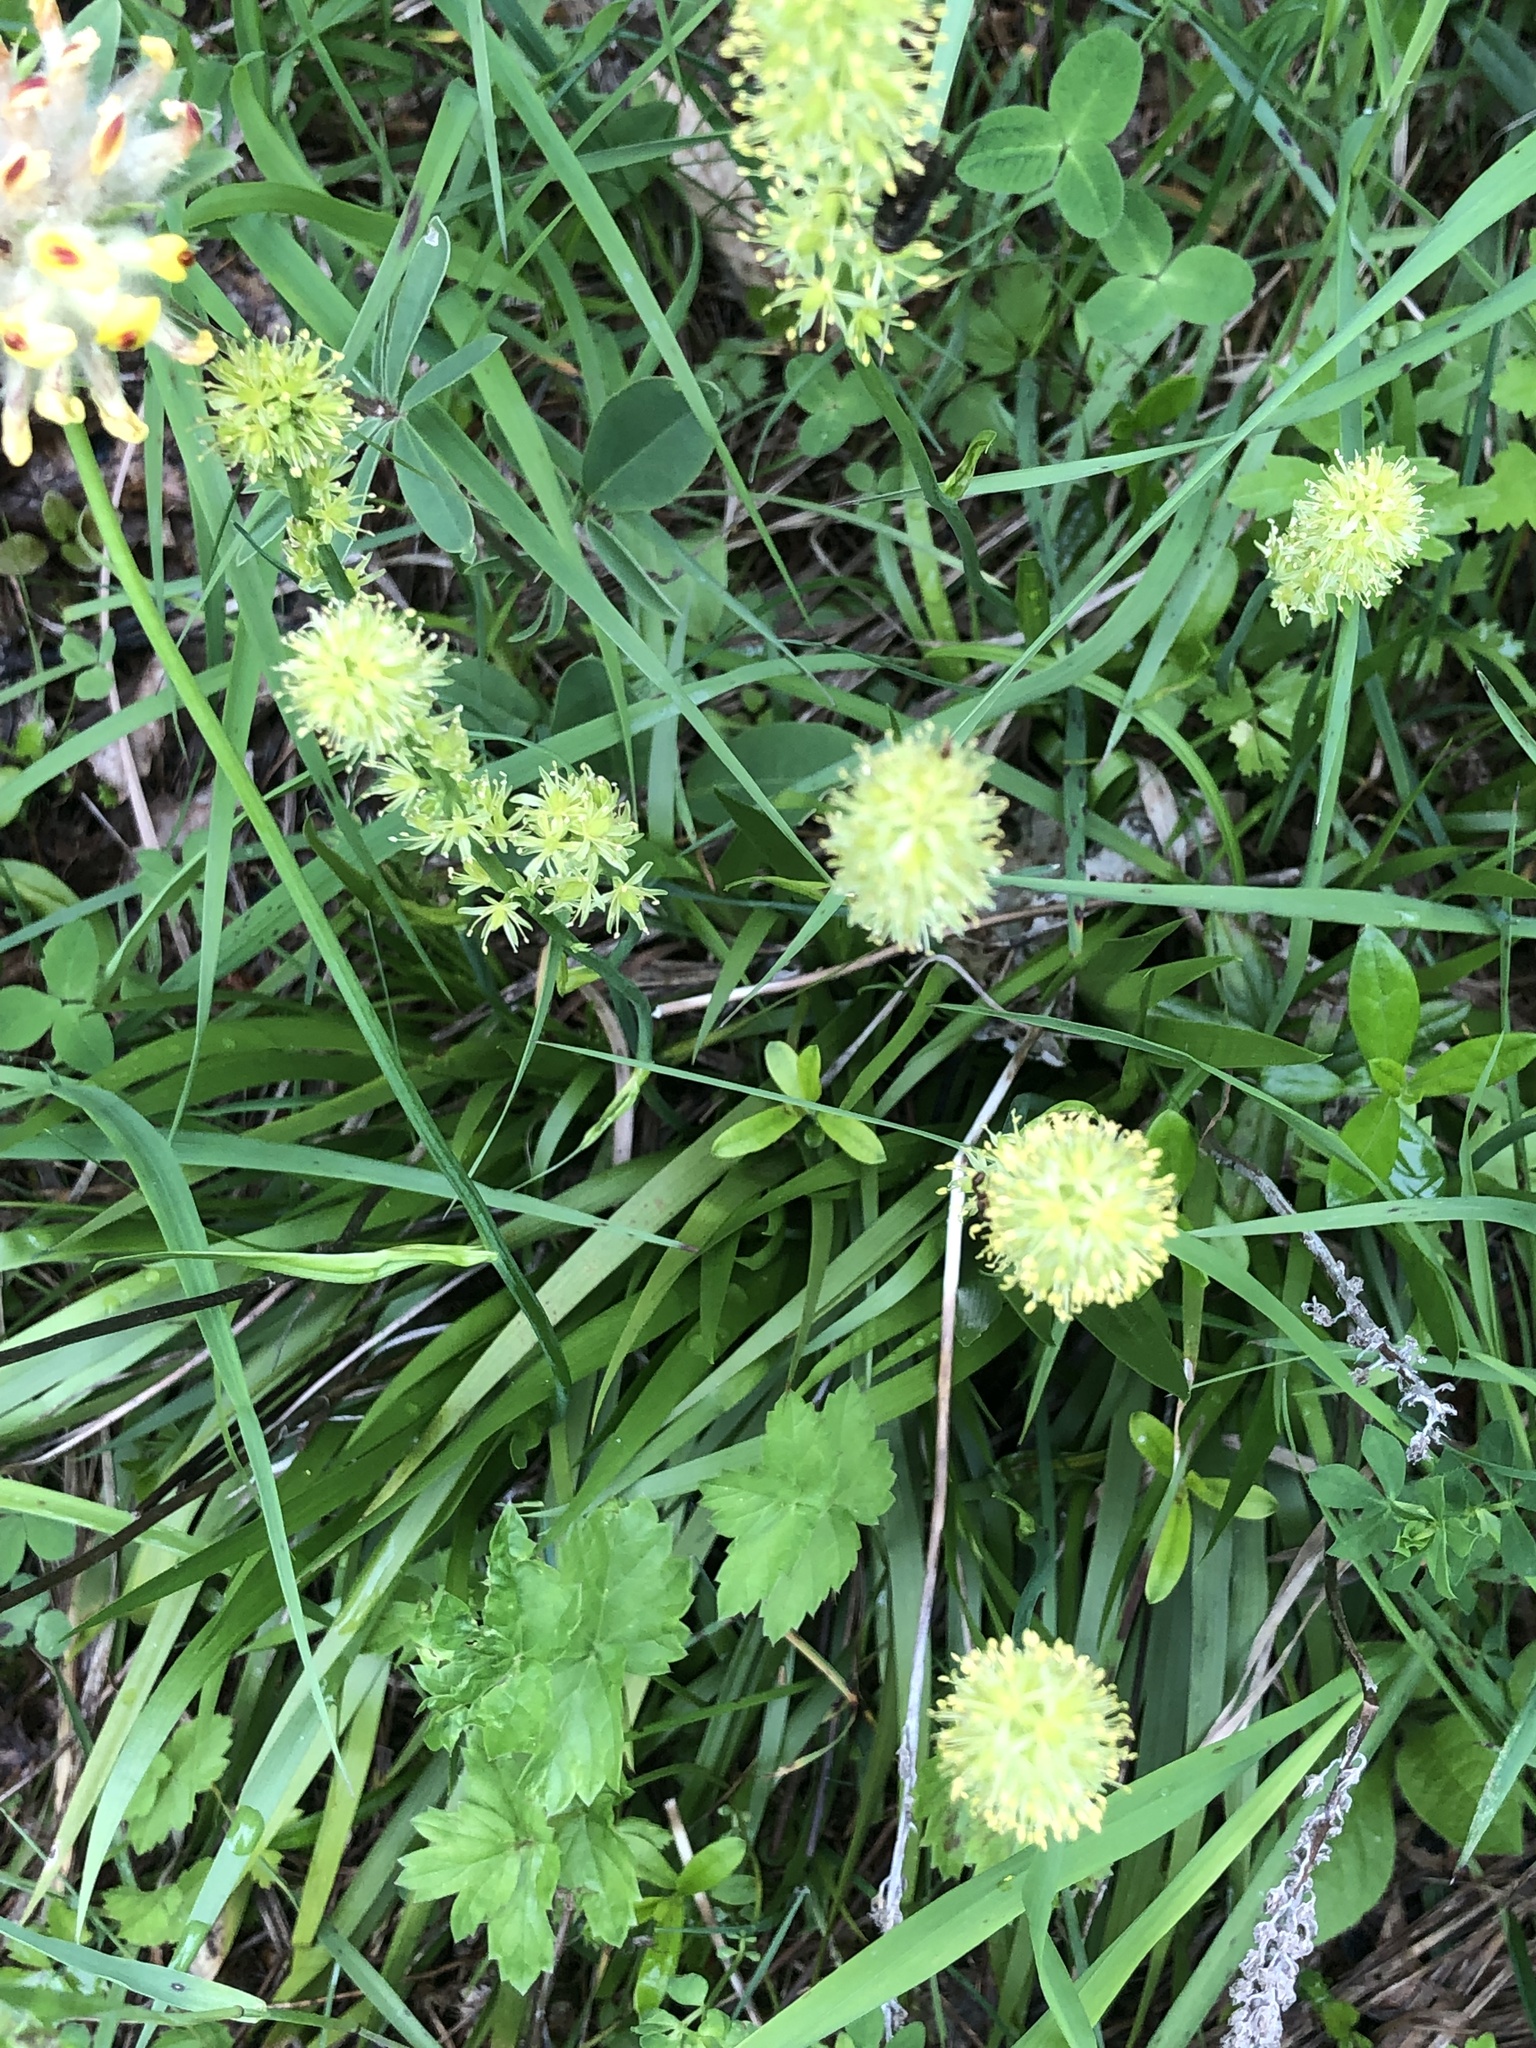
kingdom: Plantae
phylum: Tracheophyta
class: Liliopsida
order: Alismatales
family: Tofieldiaceae
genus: Tofieldia
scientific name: Tofieldia calyculata
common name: German-asphodel
